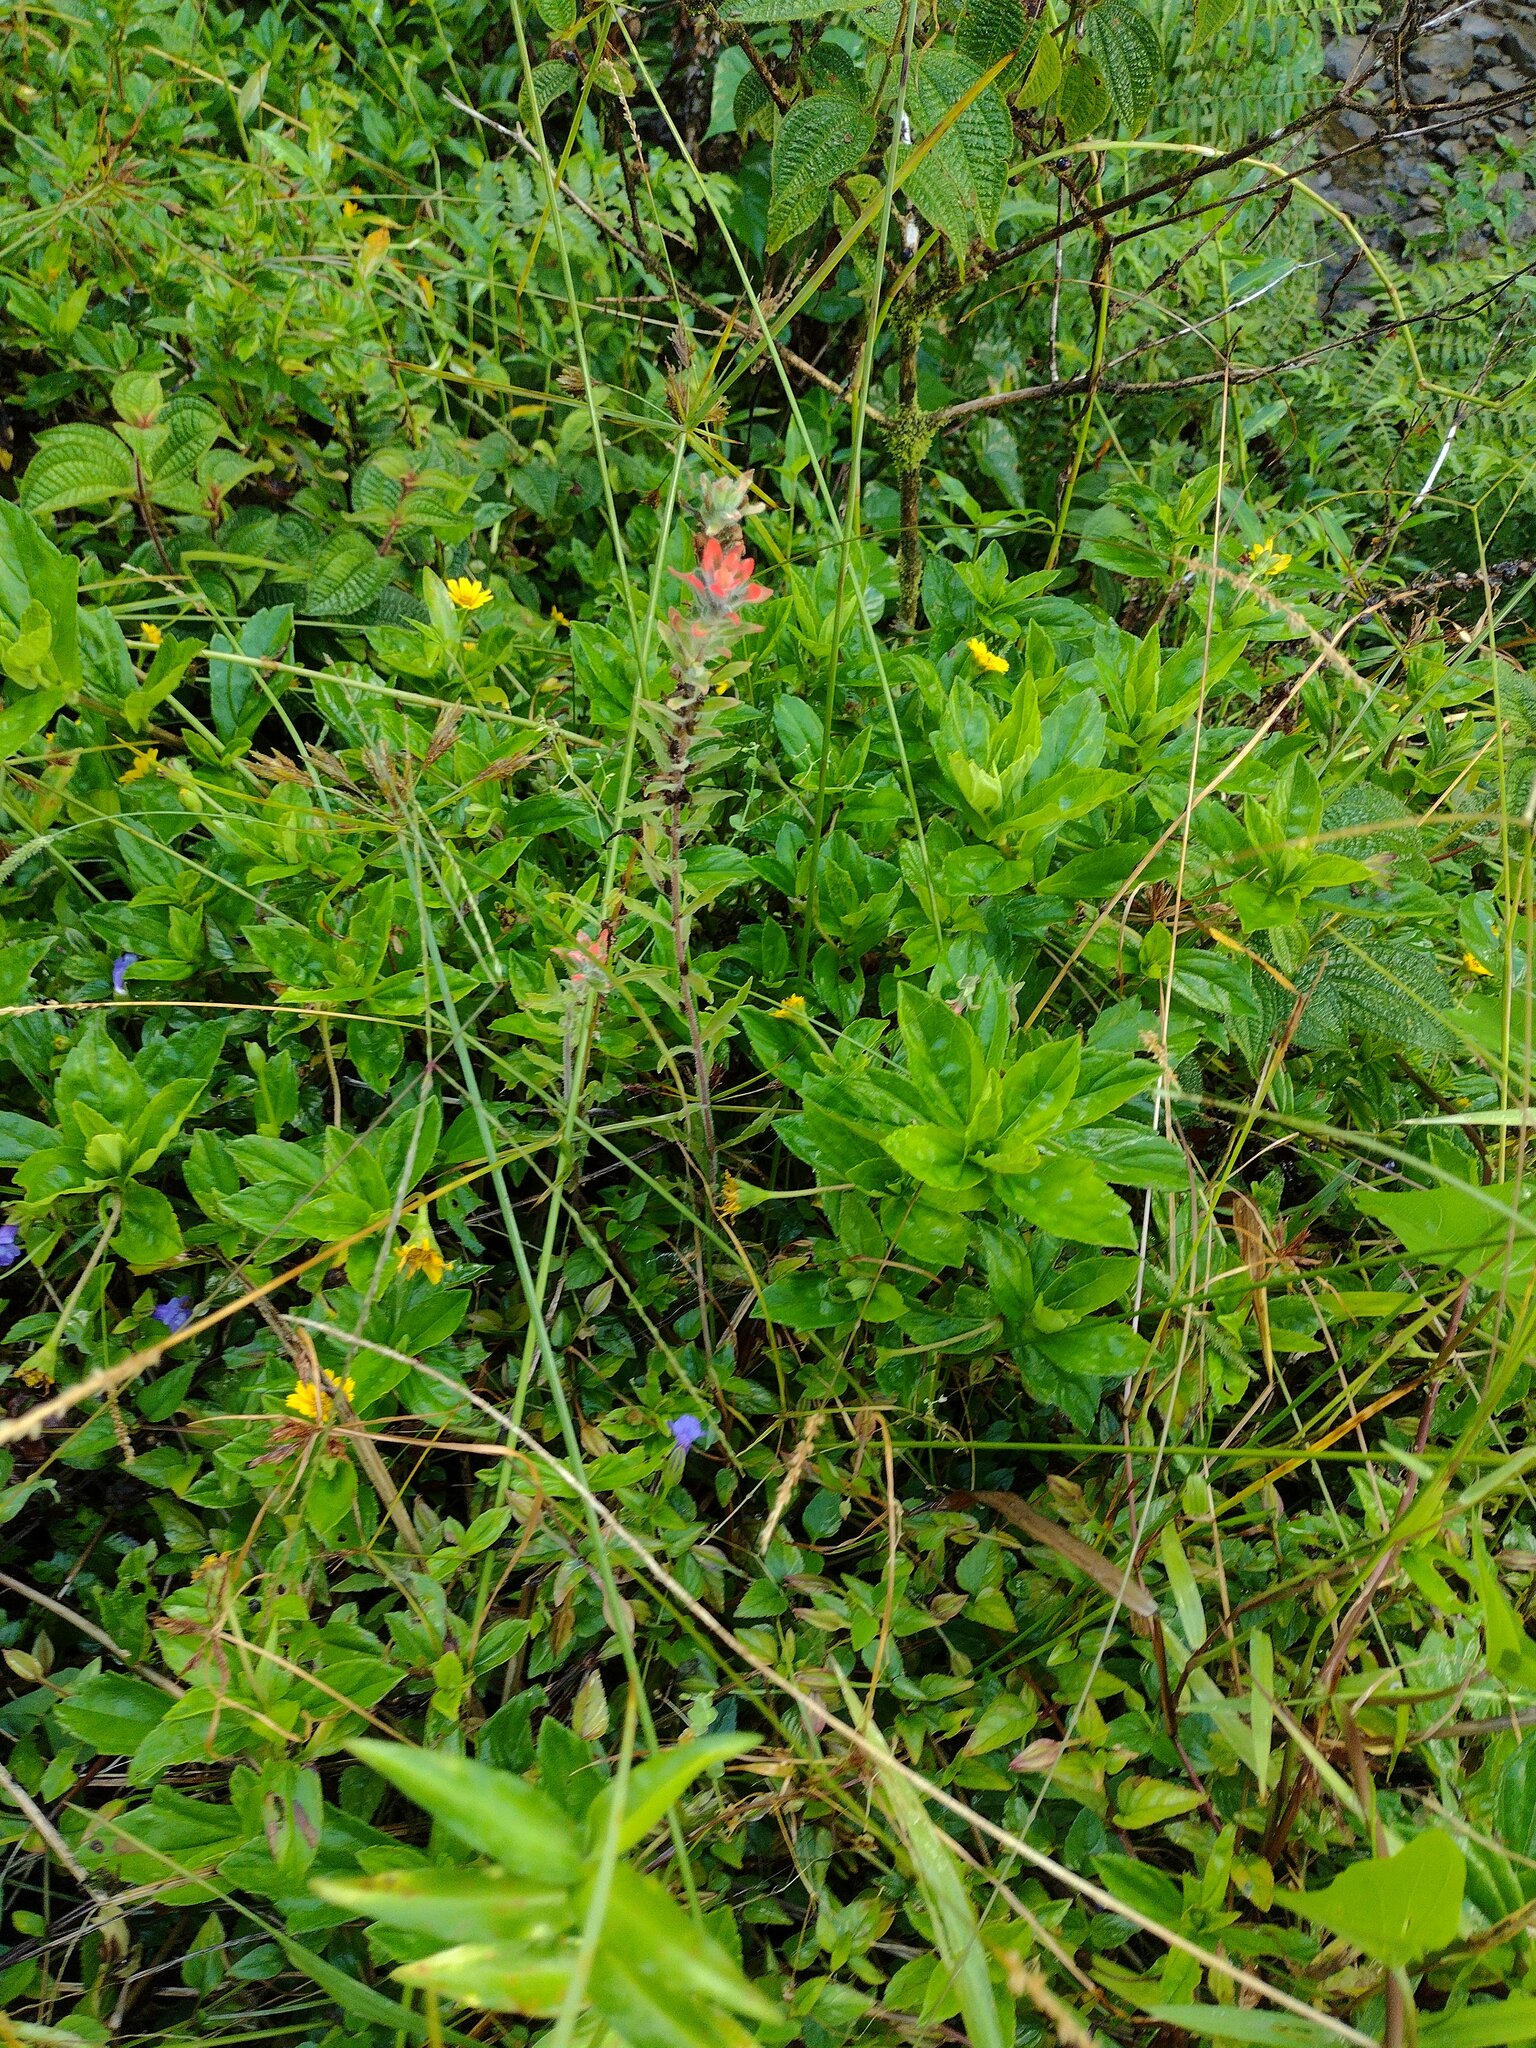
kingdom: Plantae
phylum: Tracheophyta
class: Magnoliopsida
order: Lamiales
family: Orobanchaceae
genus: Castilleja
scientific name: Castilleja arvensis
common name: Indian paintbrush
